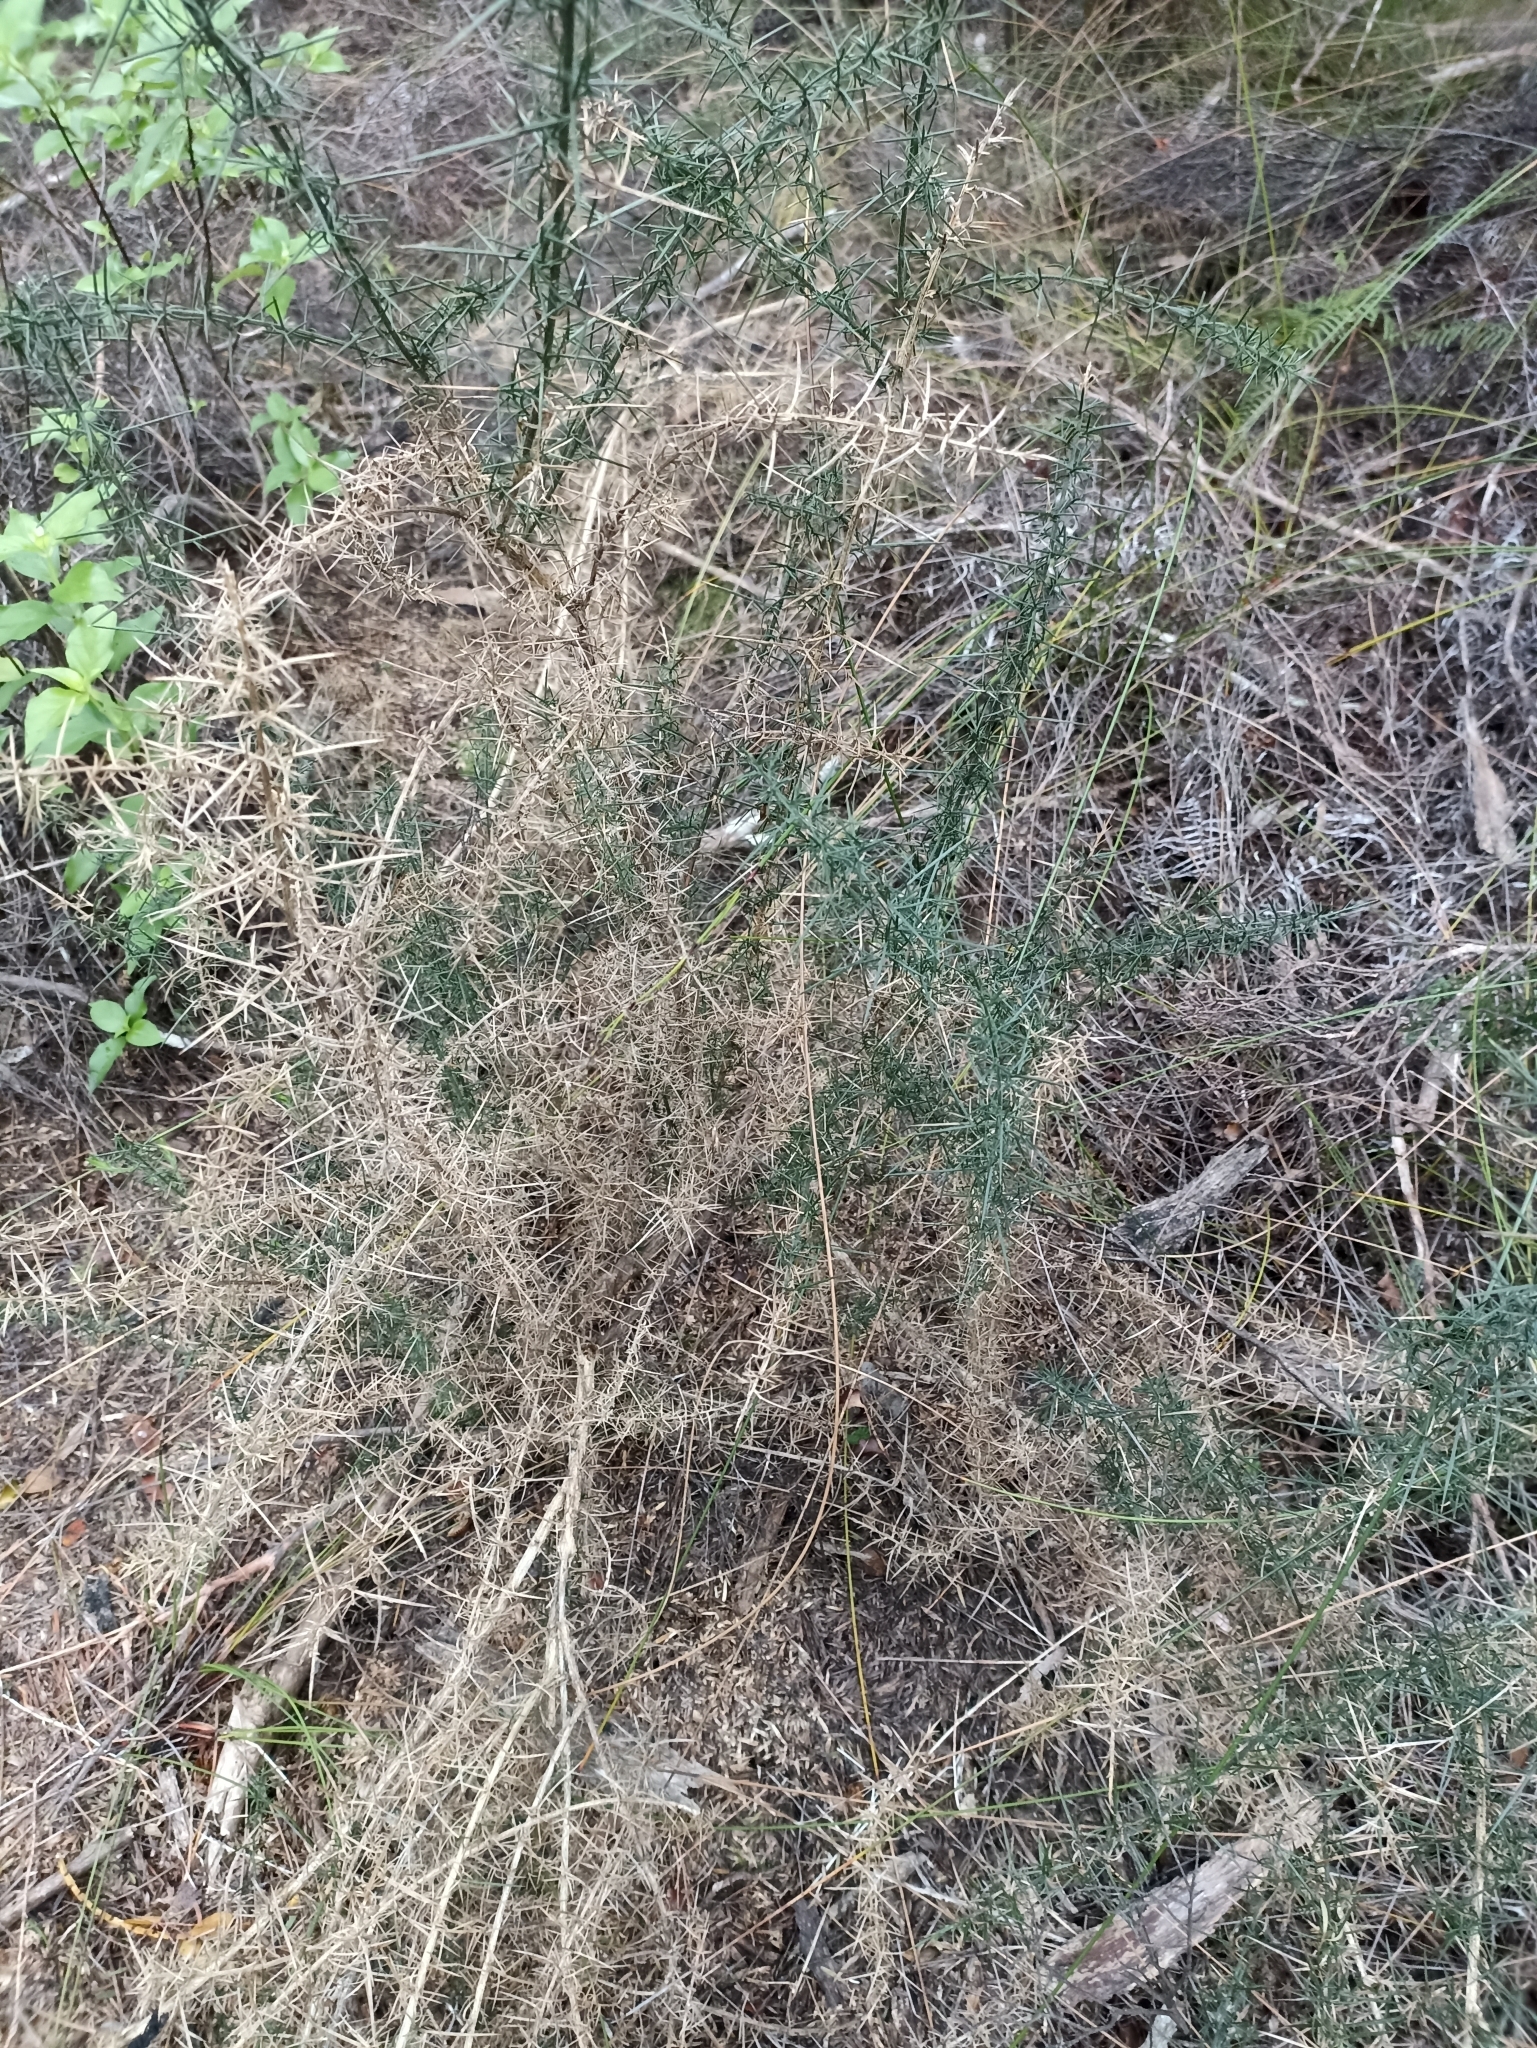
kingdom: Plantae
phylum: Tracheophyta
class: Magnoliopsida
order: Fabales
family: Fabaceae
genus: Ulex
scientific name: Ulex europaeus
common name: Common gorse
